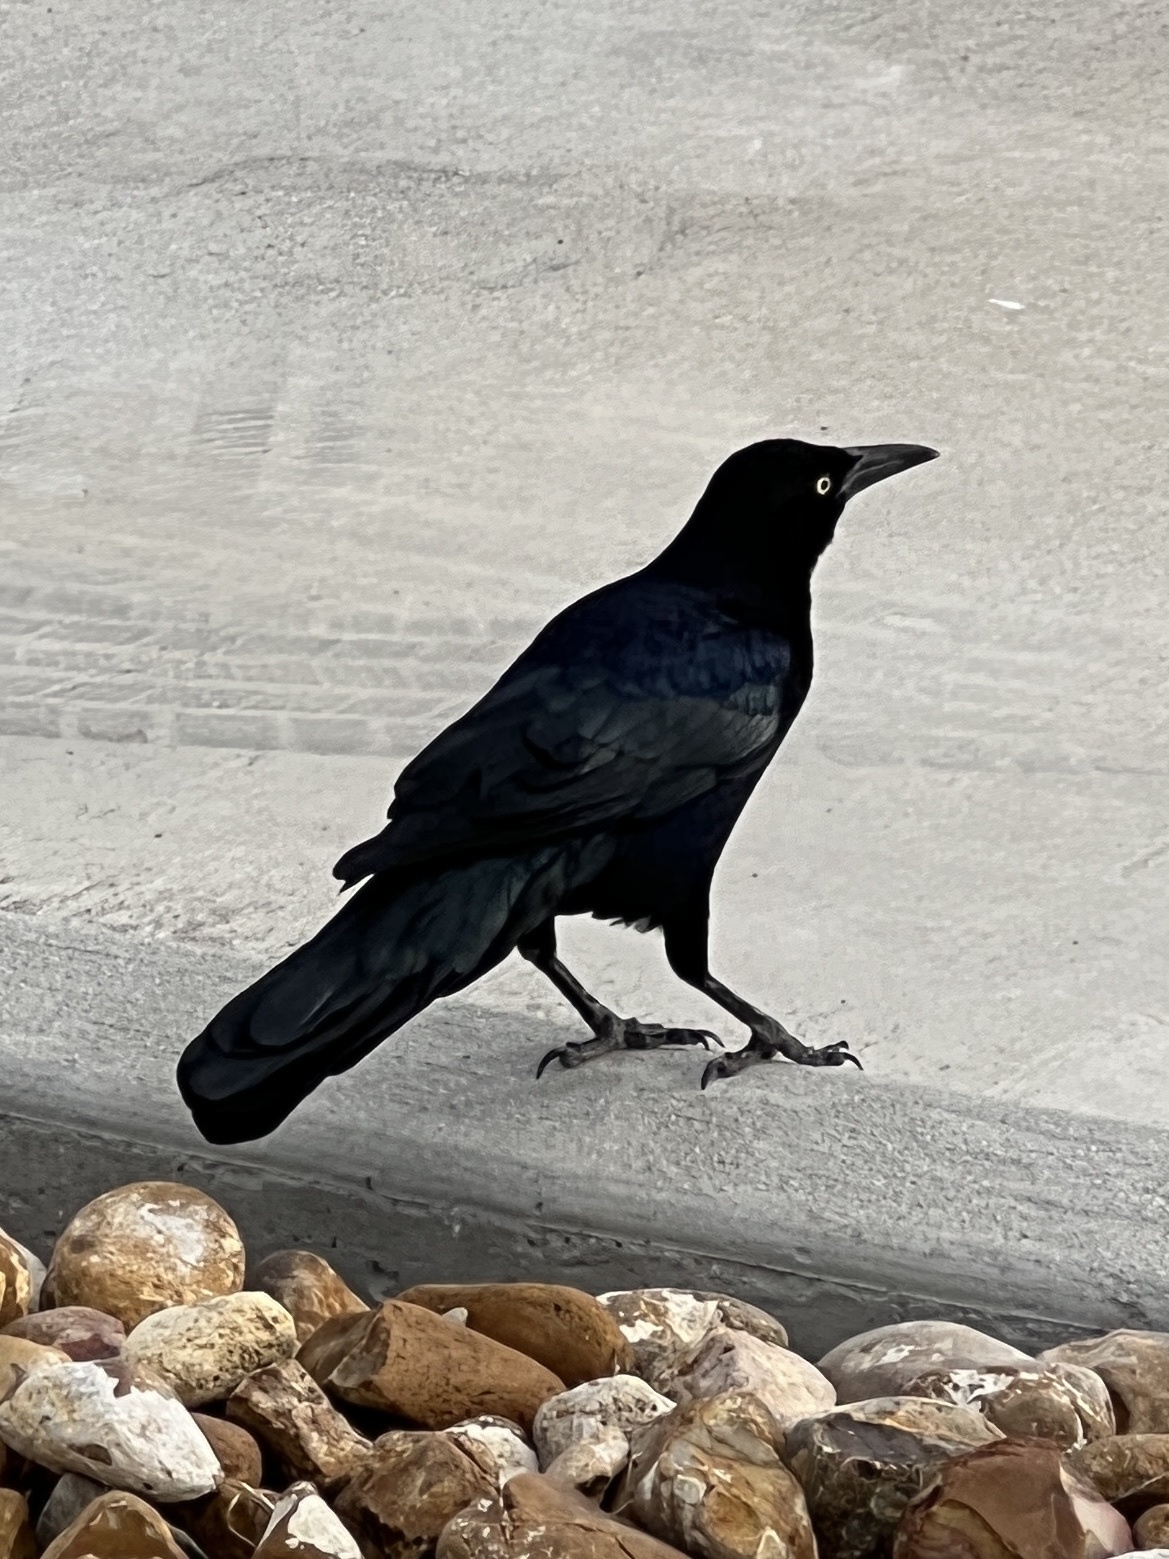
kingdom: Animalia
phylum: Chordata
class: Aves
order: Passeriformes
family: Icteridae
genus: Quiscalus
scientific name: Quiscalus mexicanus
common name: Great-tailed grackle
